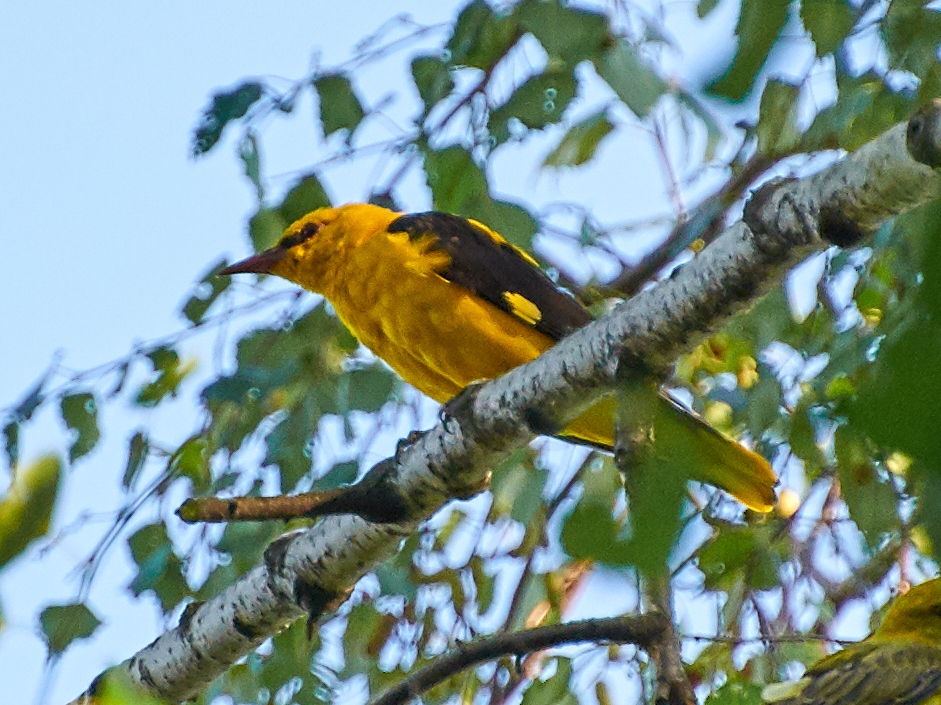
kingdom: Animalia
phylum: Chordata
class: Aves
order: Passeriformes
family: Oriolidae
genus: Oriolus
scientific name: Oriolus oriolus
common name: Eurasian golden oriole
